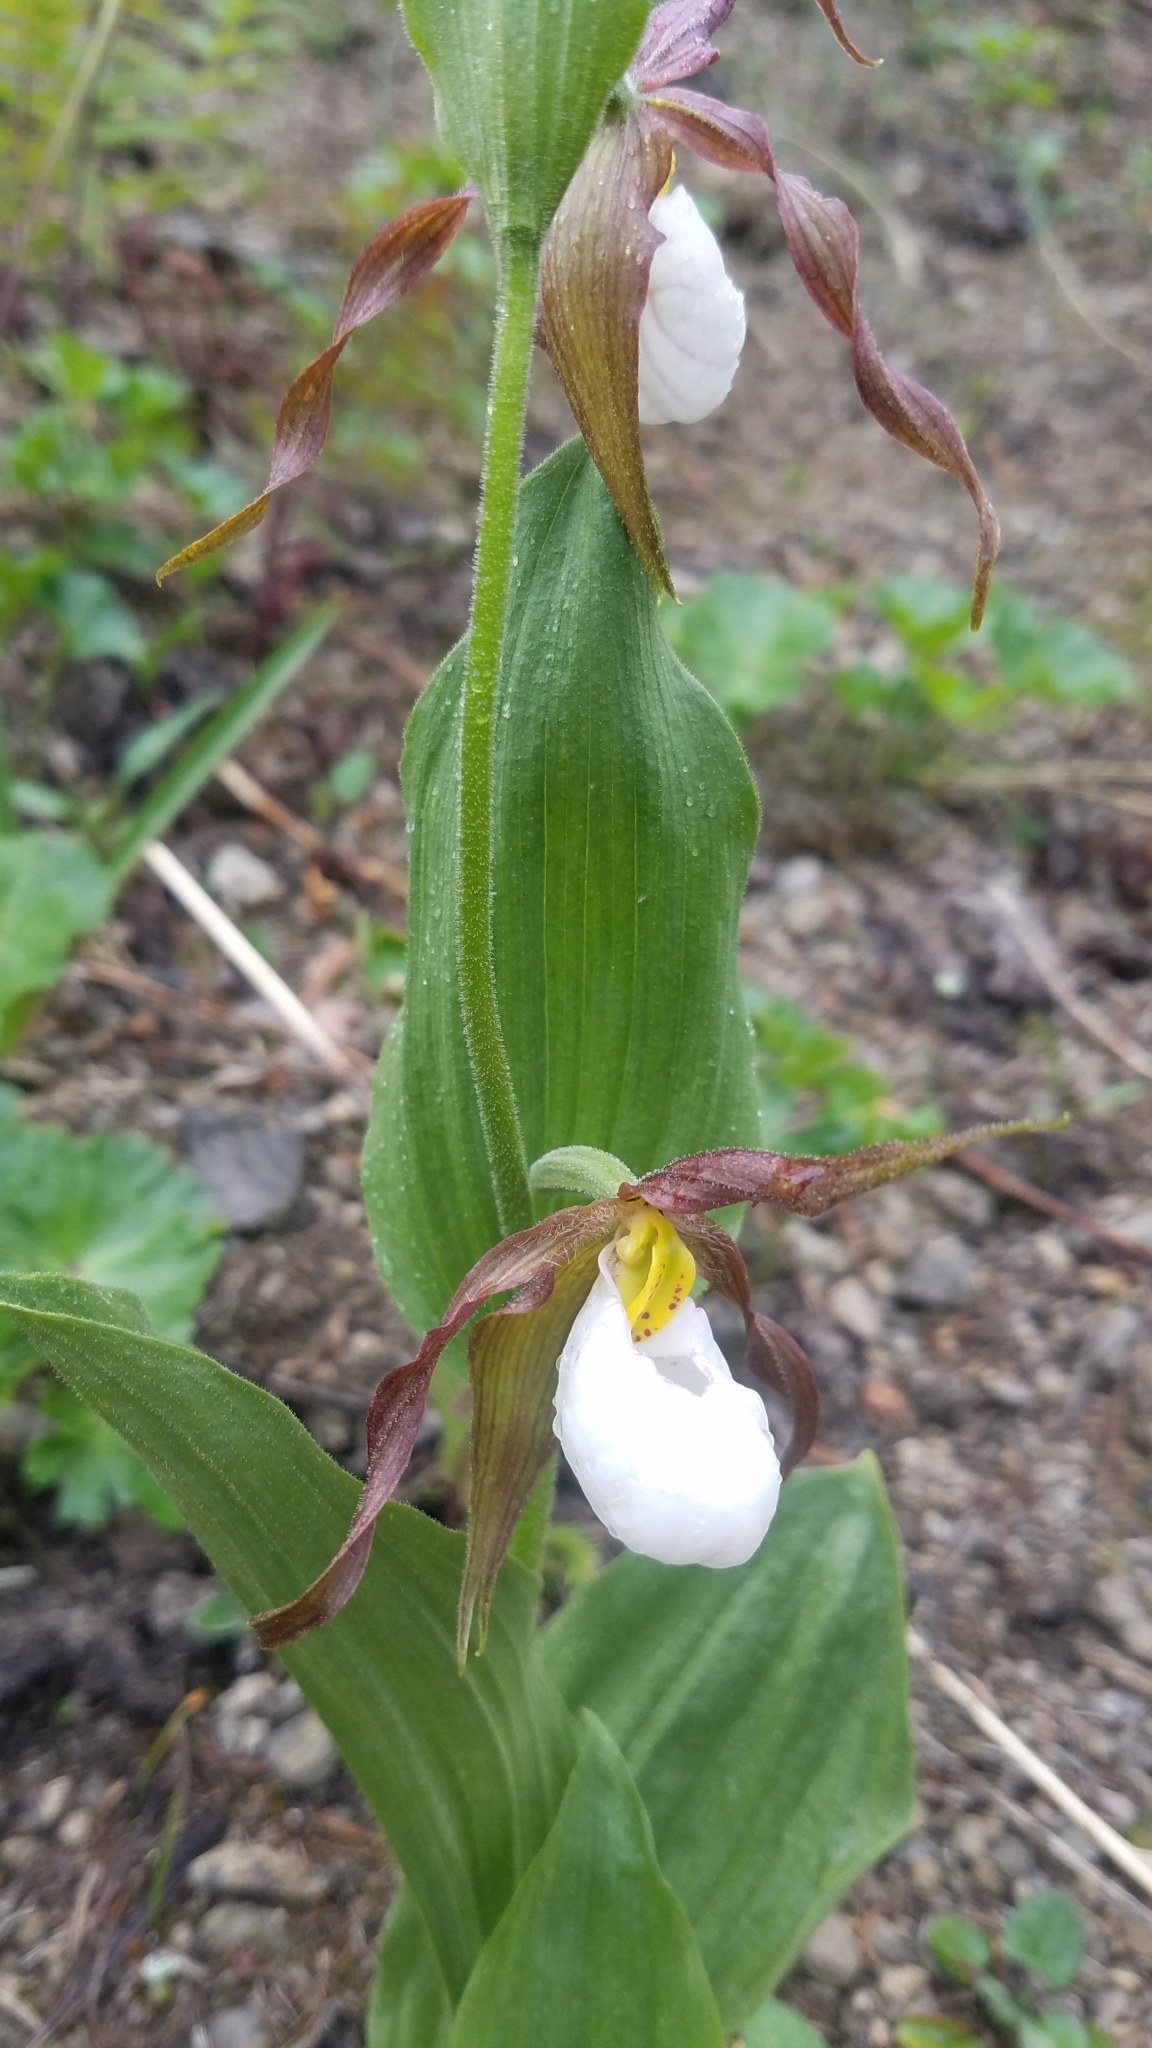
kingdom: Plantae
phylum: Tracheophyta
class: Liliopsida
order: Asparagales
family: Orchidaceae
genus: Cypripedium
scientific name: Cypripedium montanum
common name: Mountain lady's-slipper
